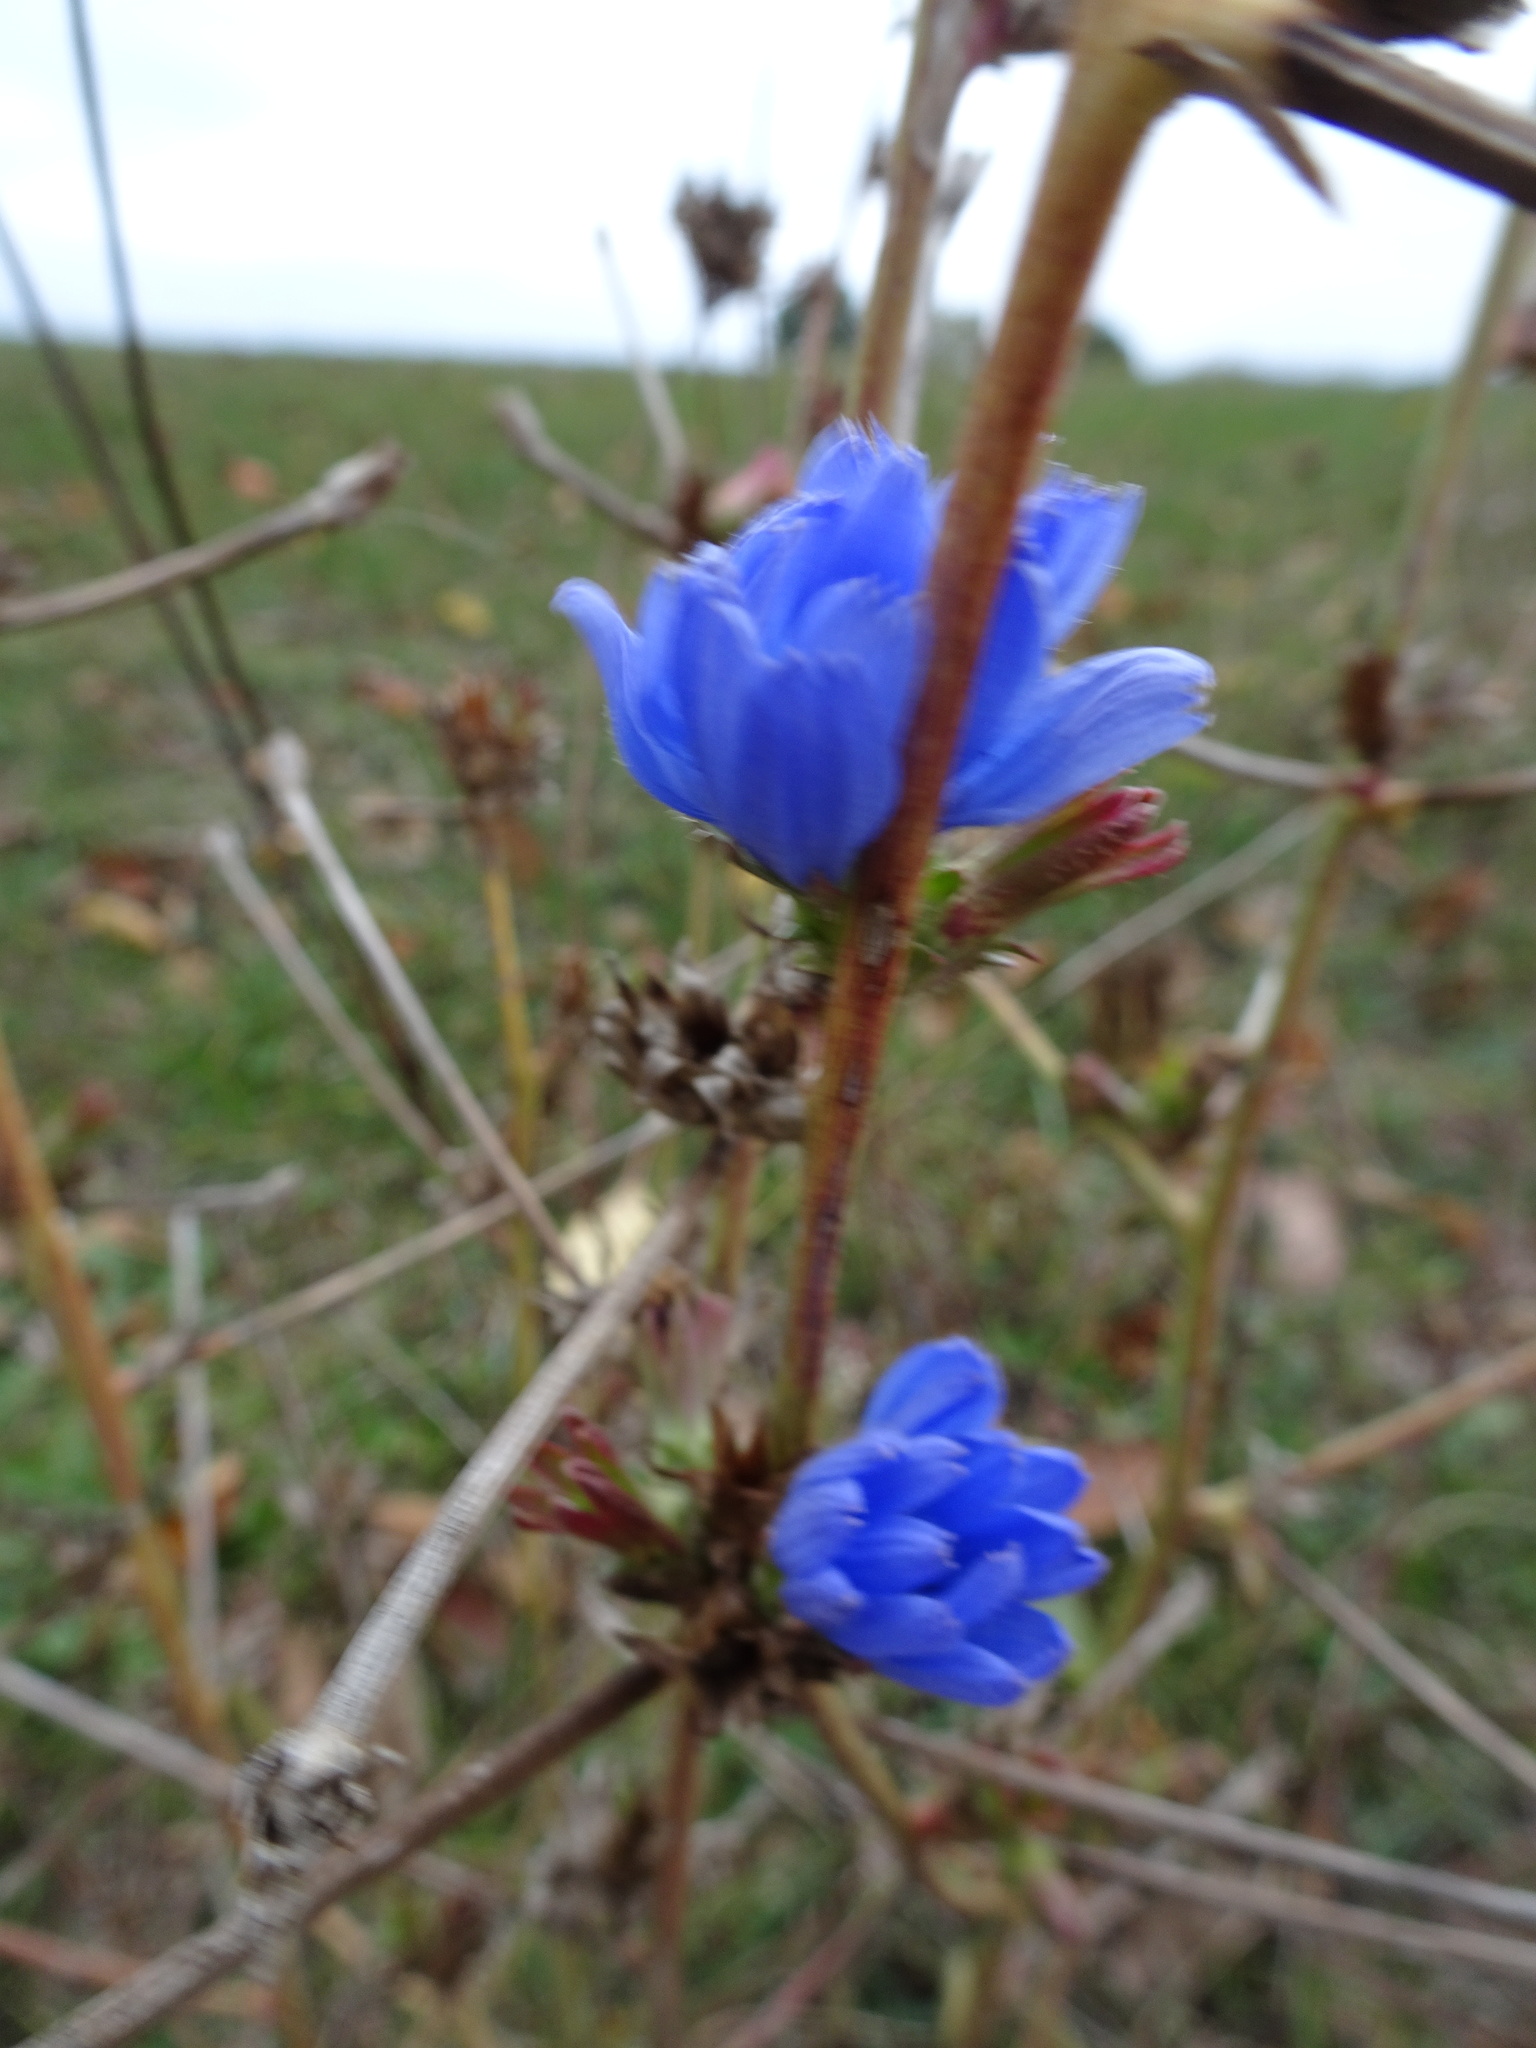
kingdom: Plantae
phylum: Tracheophyta
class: Magnoliopsida
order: Asterales
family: Asteraceae
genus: Cichorium
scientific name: Cichorium intybus
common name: Chicory
